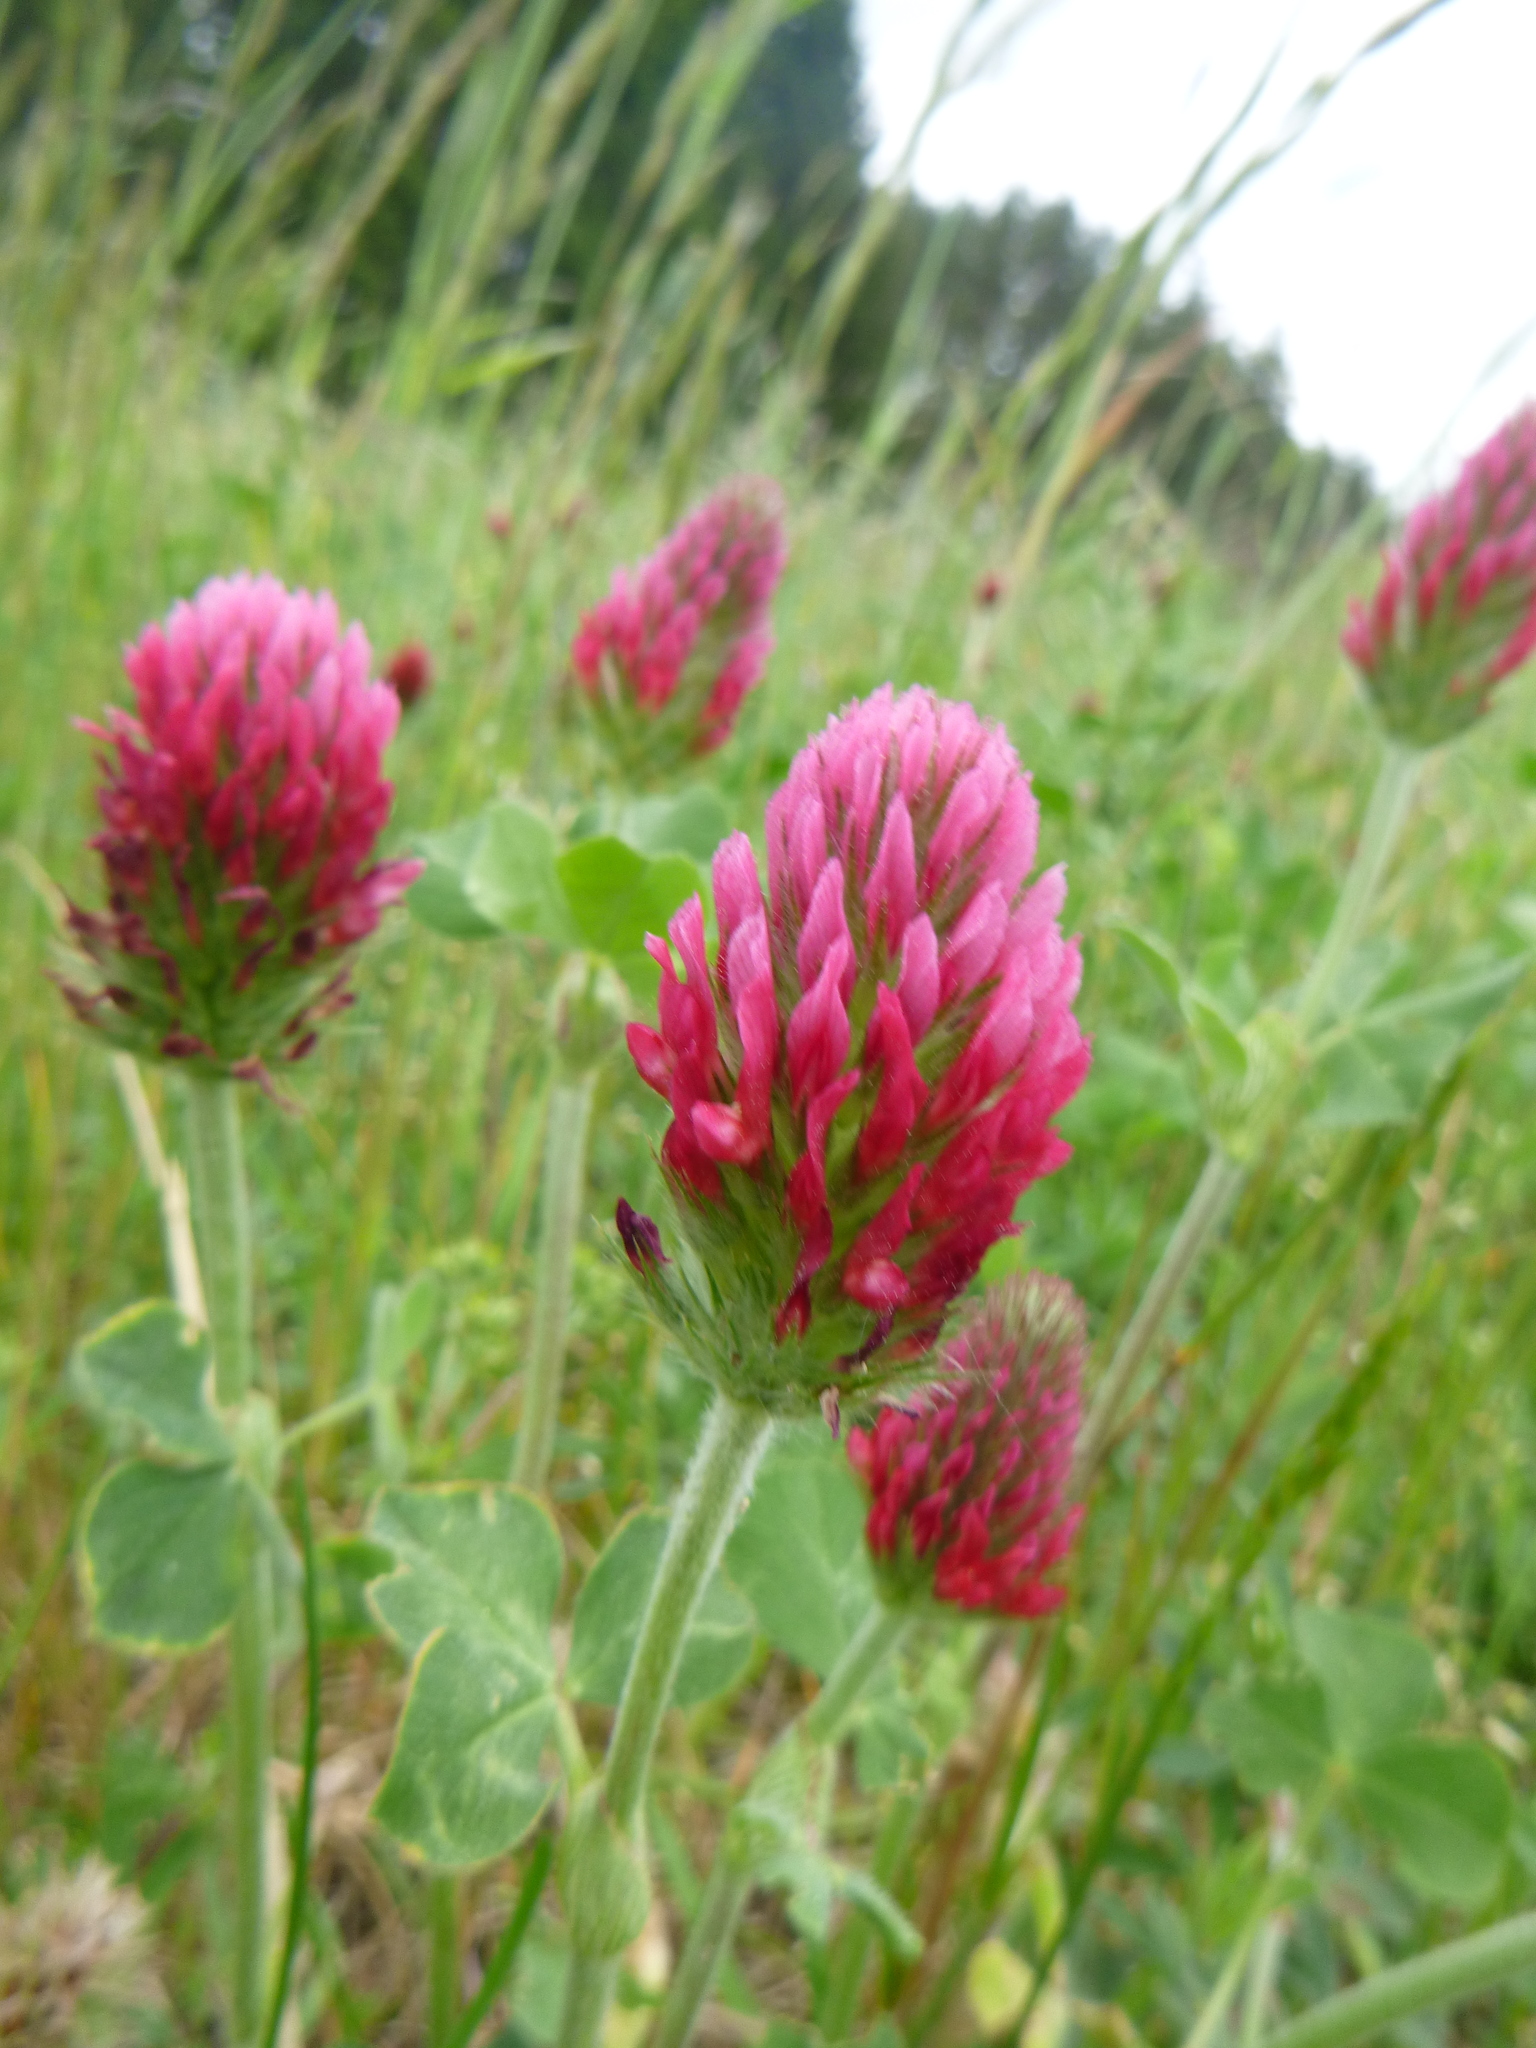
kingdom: Plantae
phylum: Tracheophyta
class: Magnoliopsida
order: Fabales
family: Fabaceae
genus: Trifolium
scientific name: Trifolium incarnatum
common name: Crimson clover
